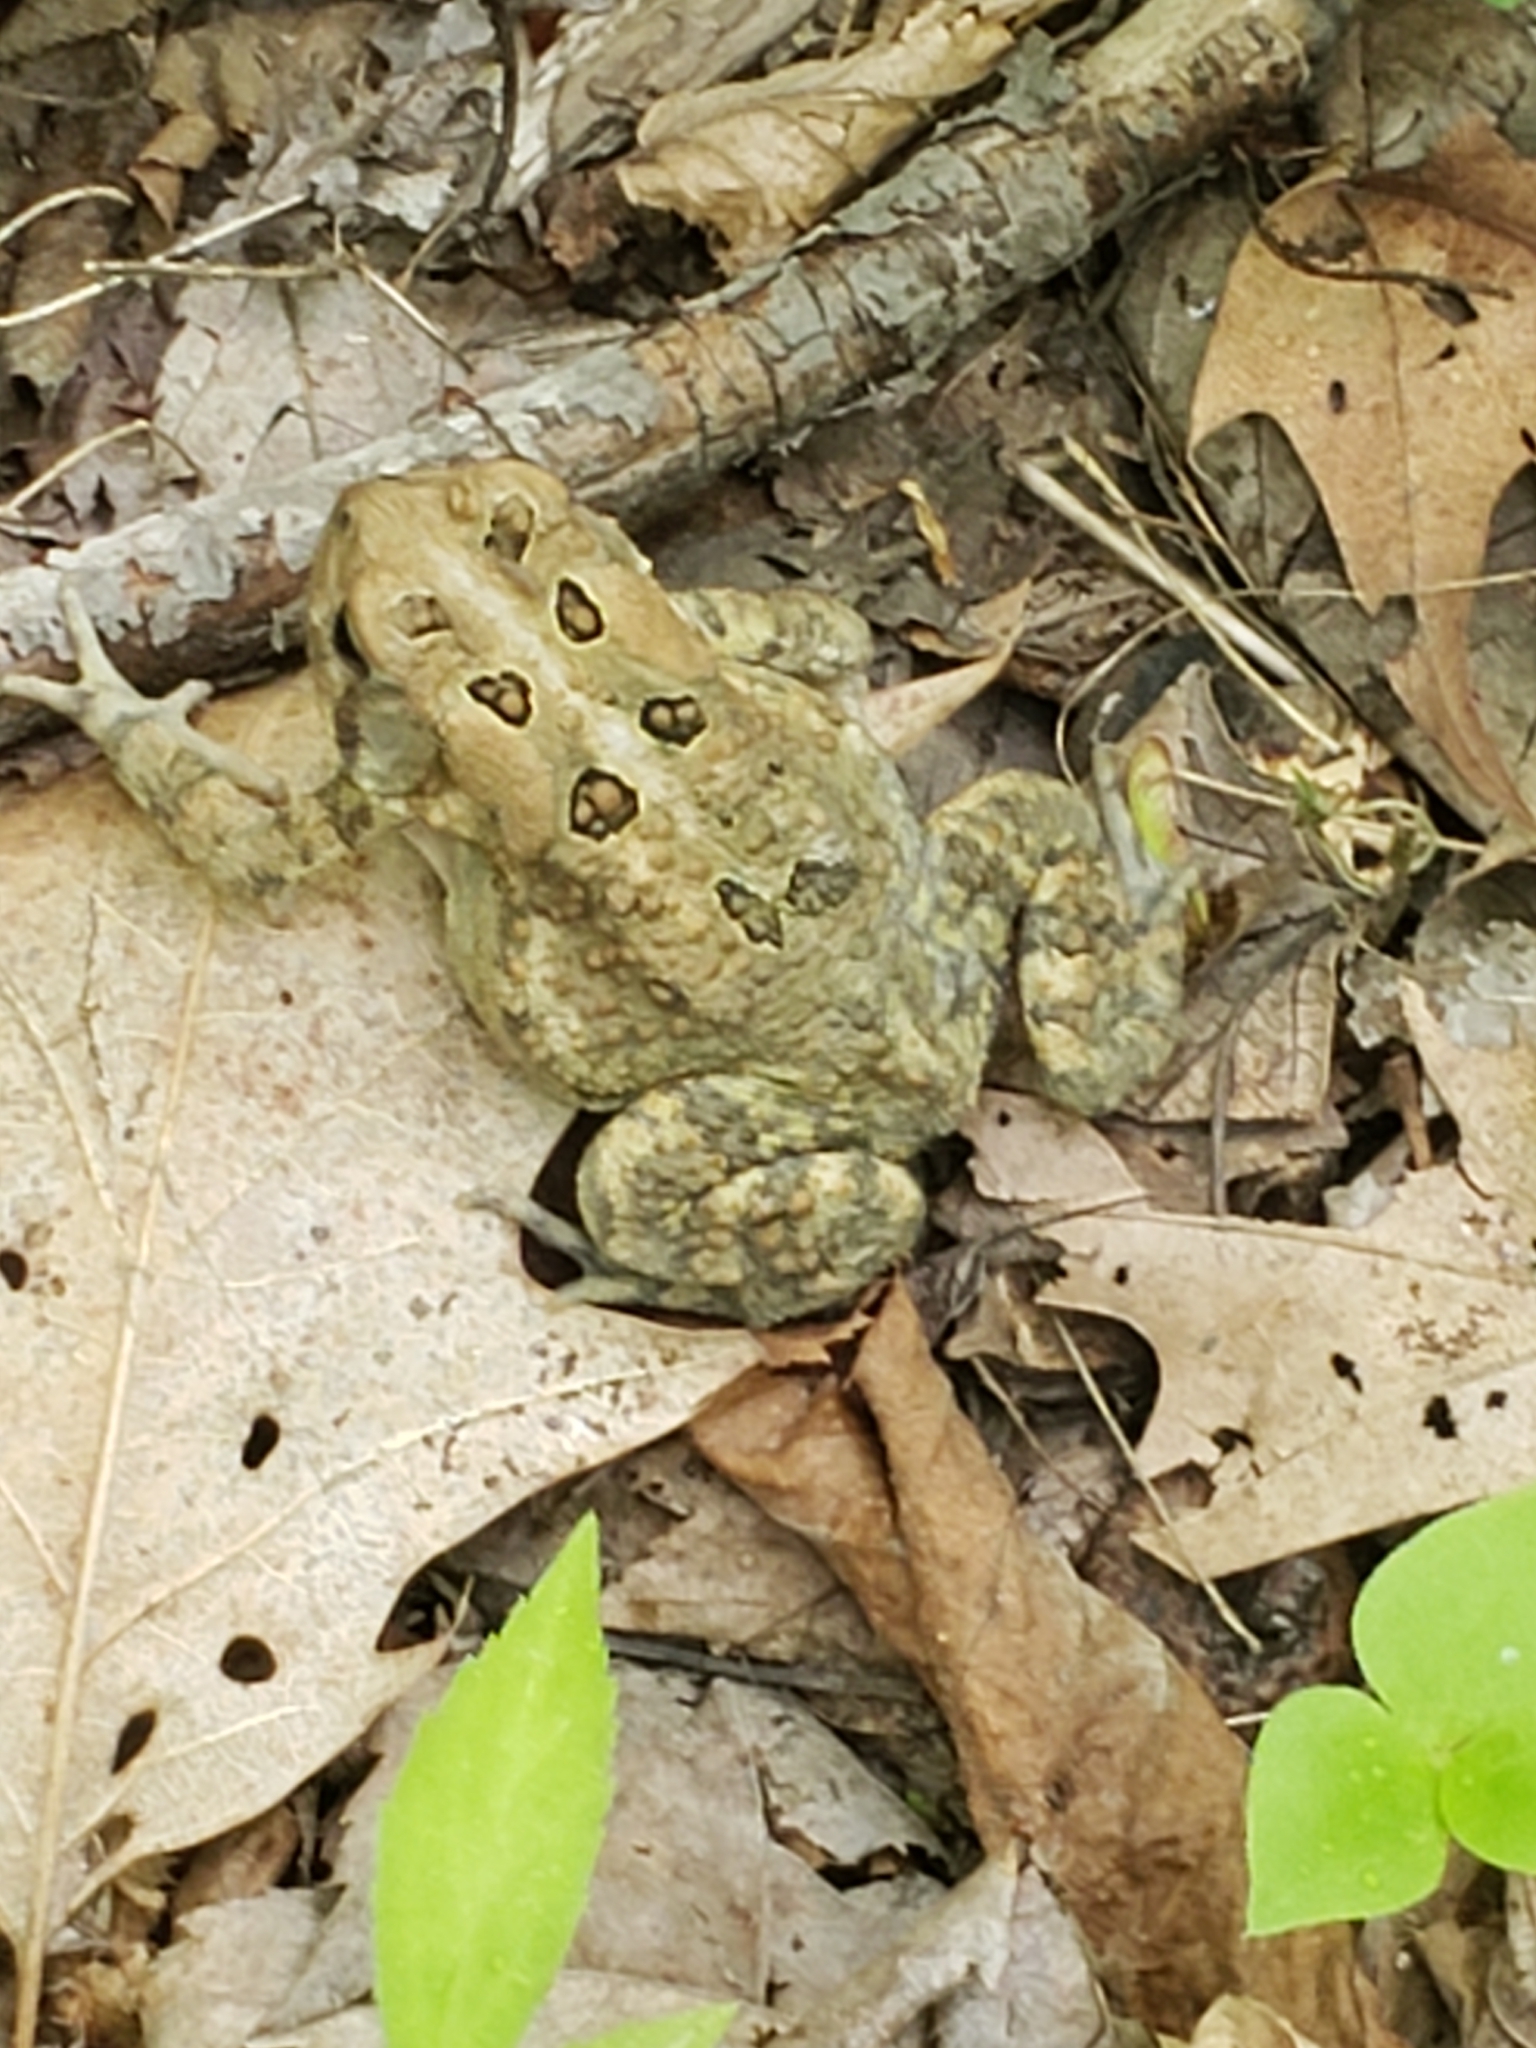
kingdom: Animalia
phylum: Chordata
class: Amphibia
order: Anura
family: Bufonidae
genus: Anaxyrus
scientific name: Anaxyrus americanus
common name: American toad
